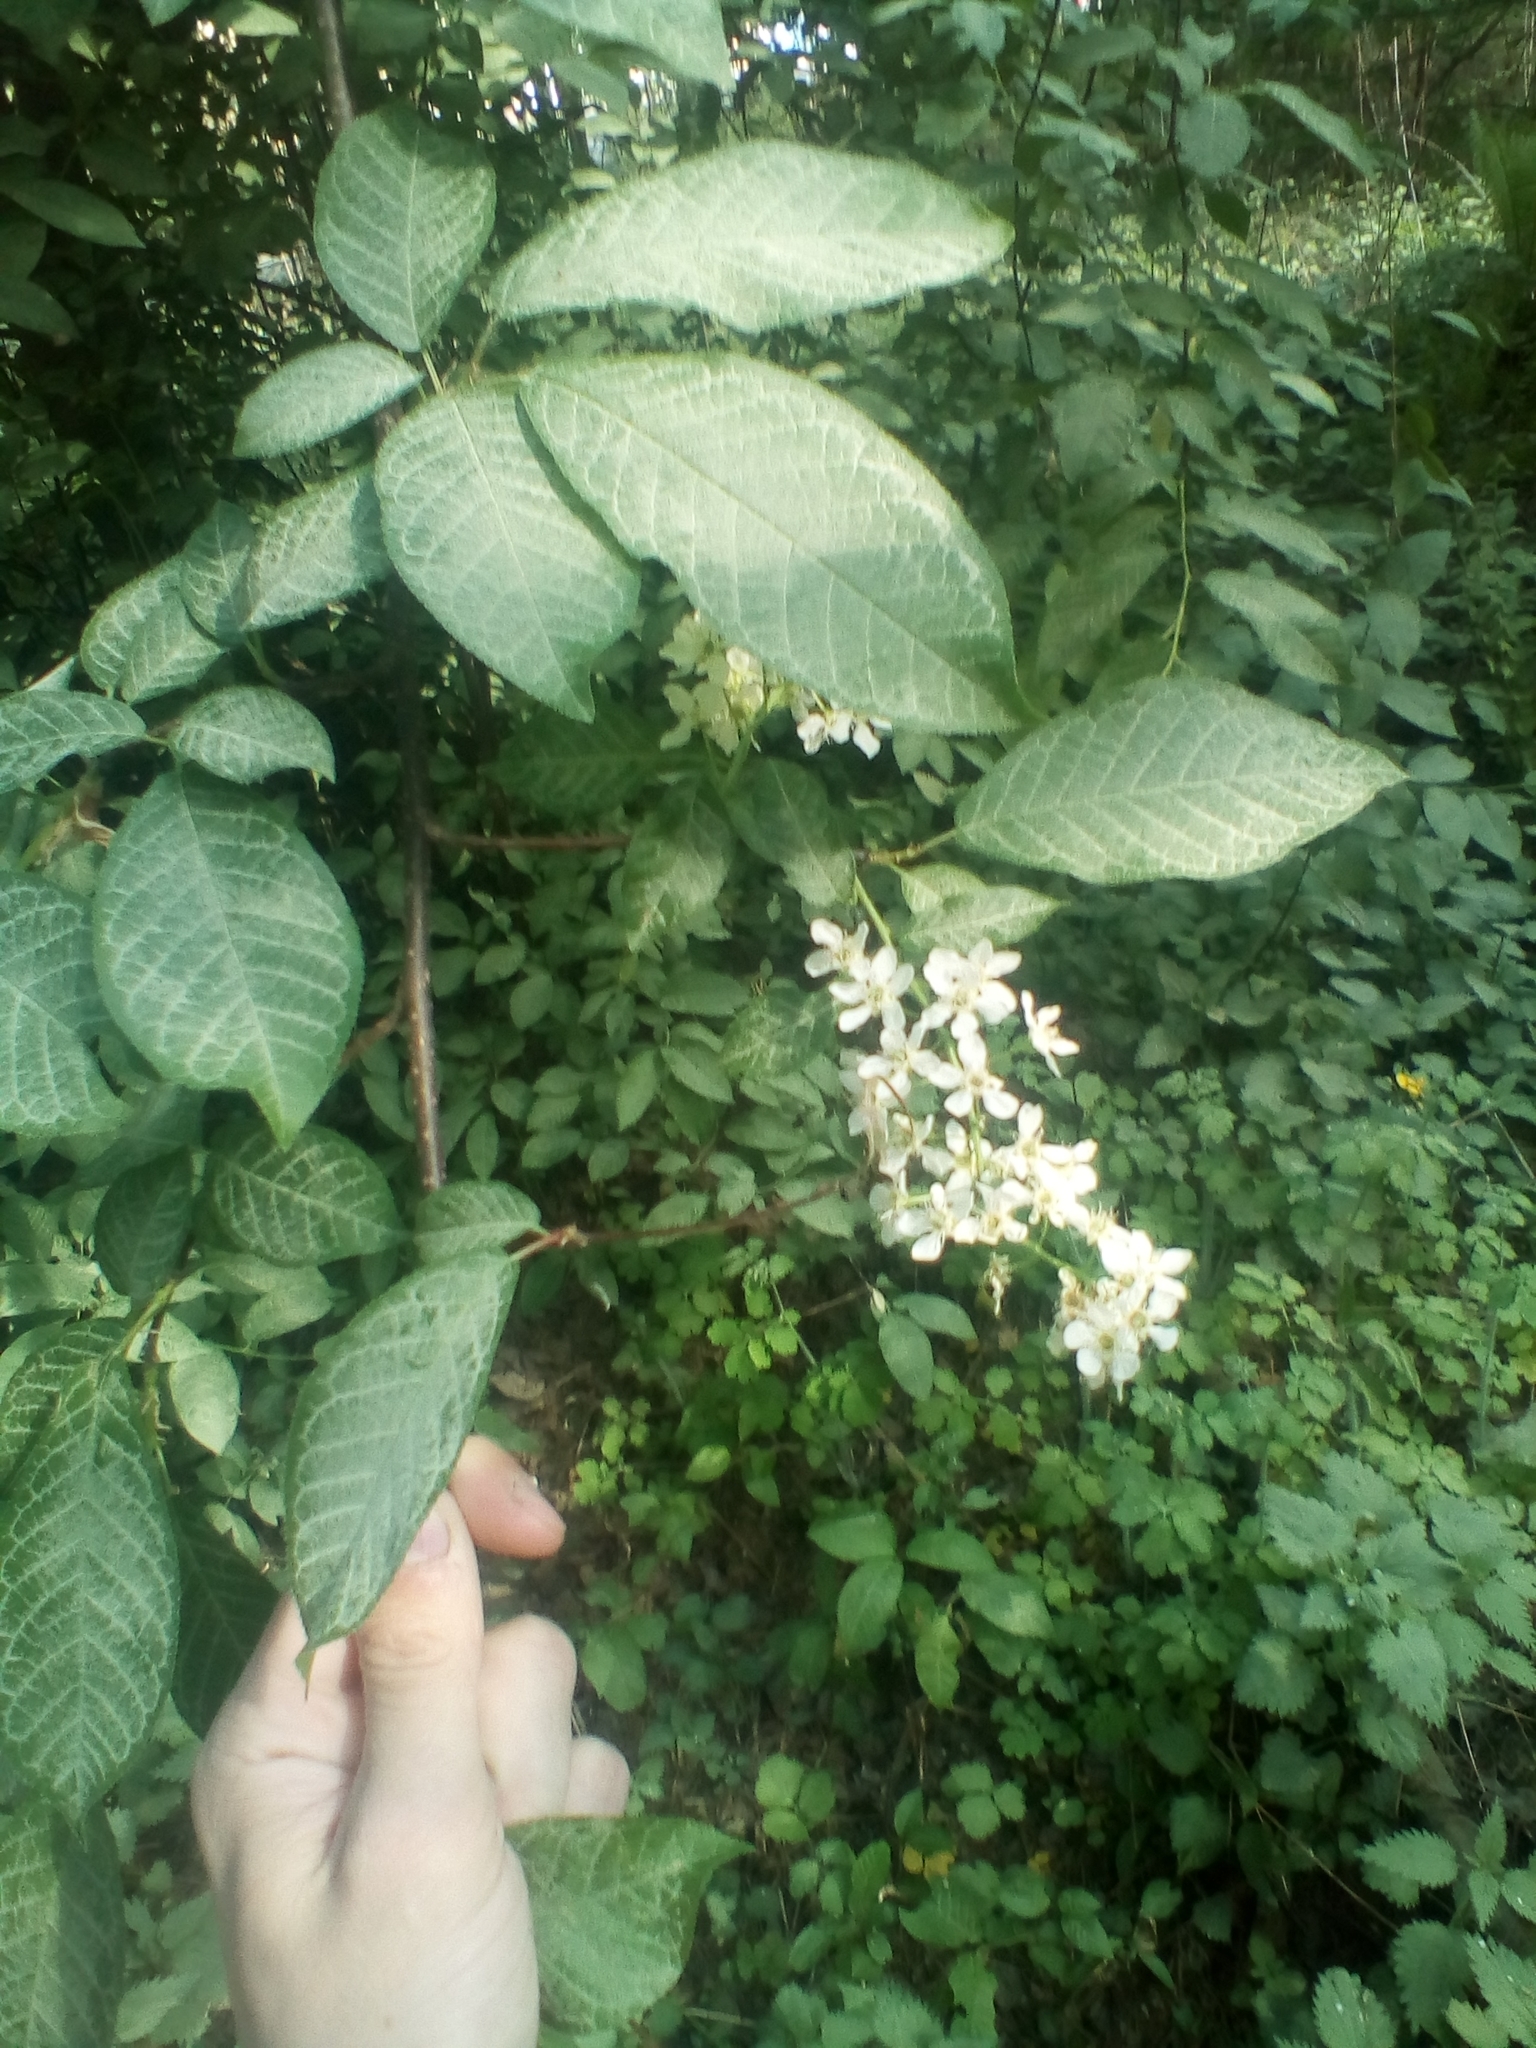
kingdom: Plantae
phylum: Tracheophyta
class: Magnoliopsida
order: Rosales
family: Rosaceae
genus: Prunus
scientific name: Prunus padus
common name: Bird cherry
